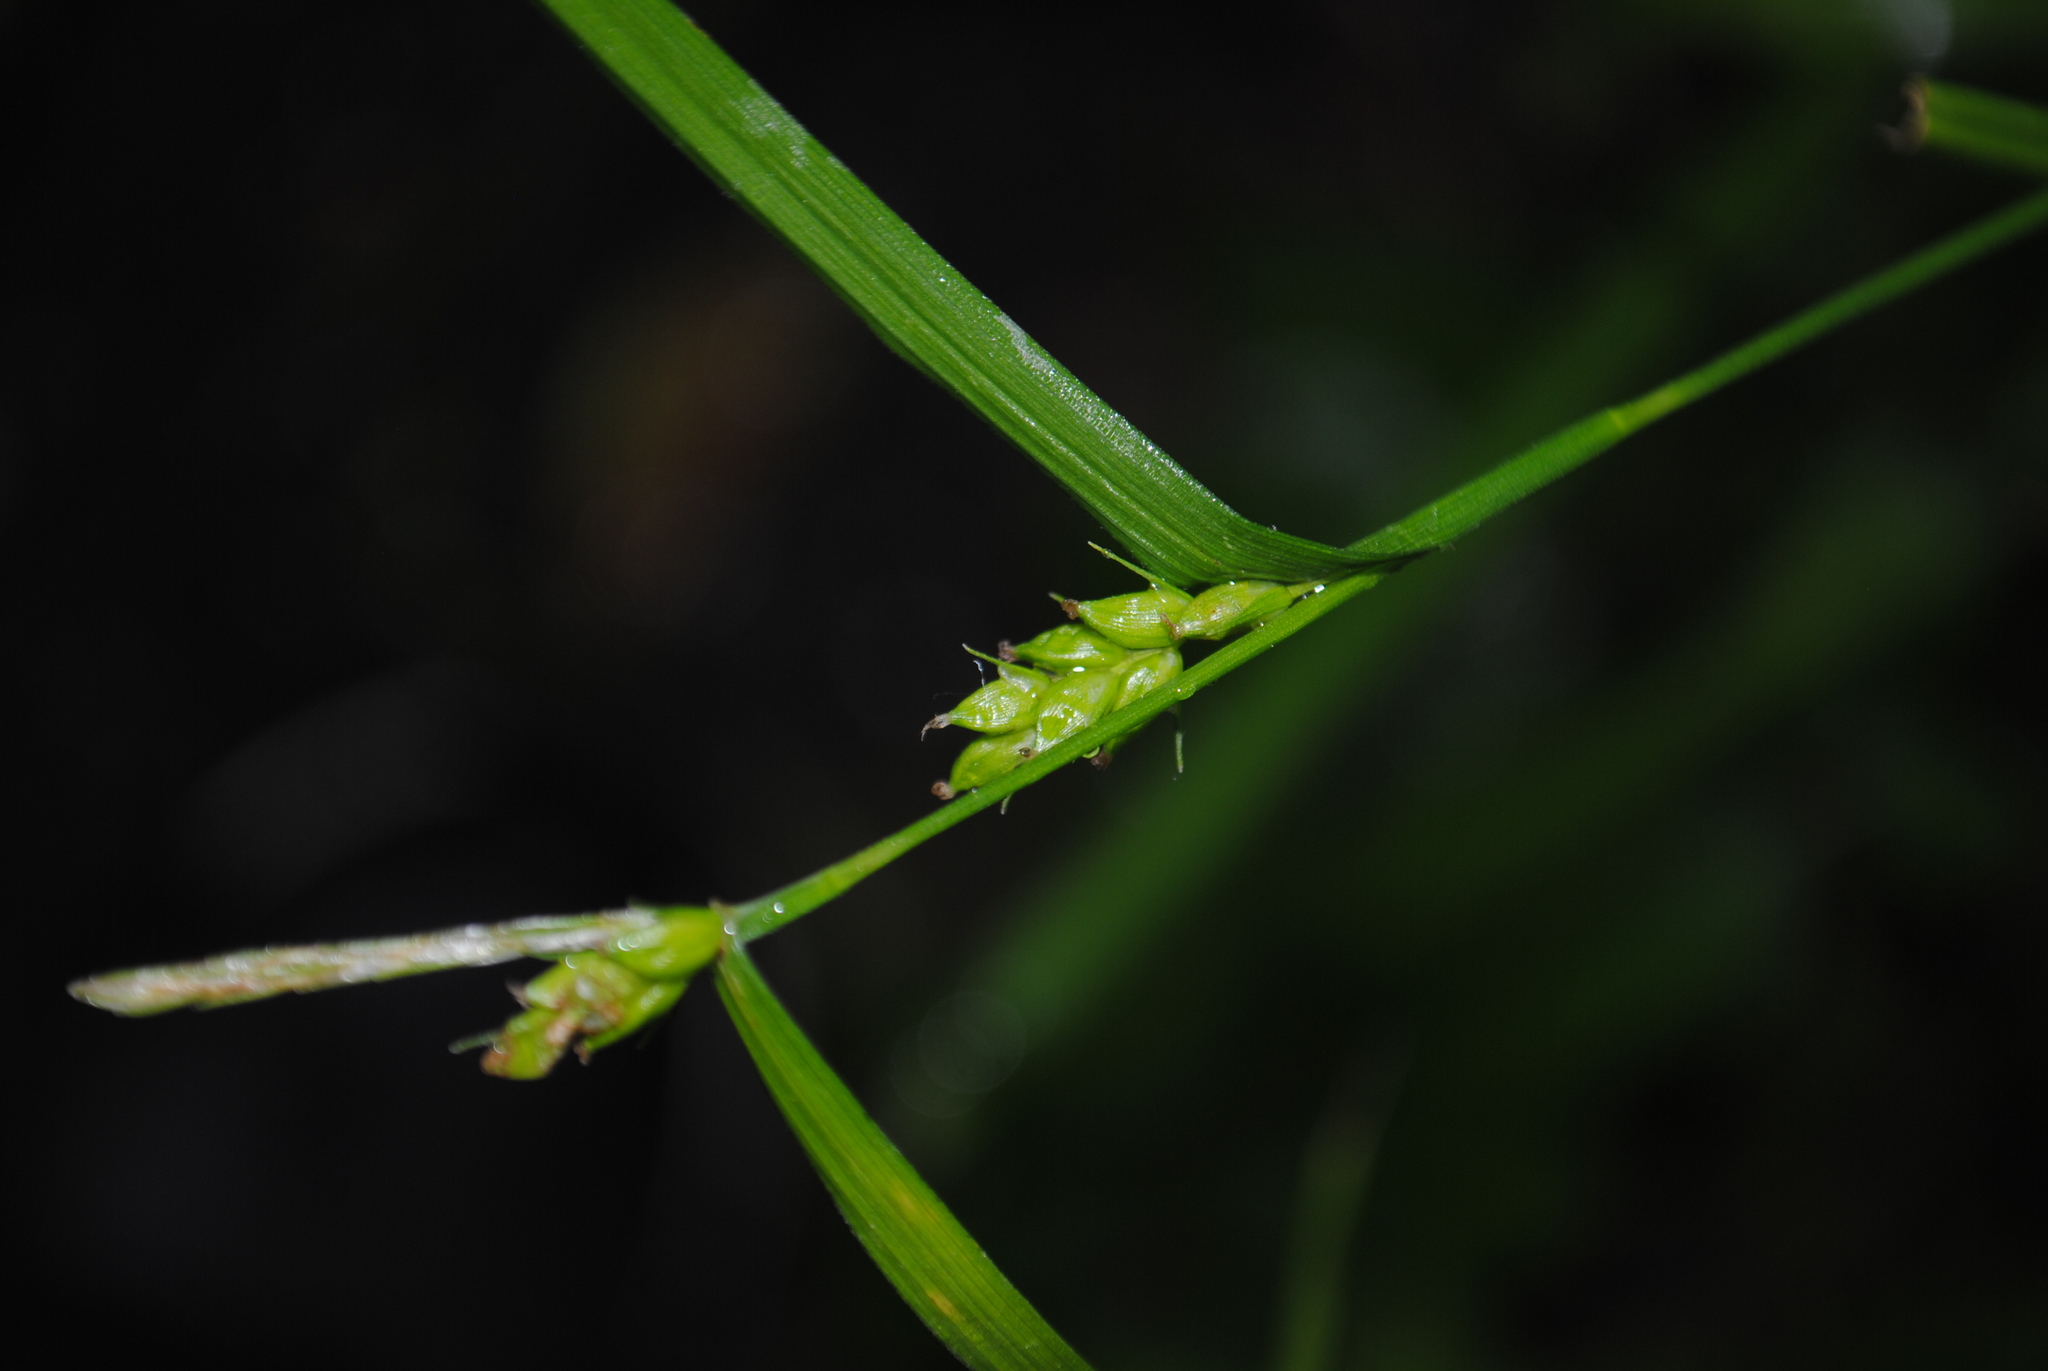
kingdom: Plantae
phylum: Tracheophyta
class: Liliopsida
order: Poales
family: Cyperaceae
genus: Carex
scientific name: Carex amphibola
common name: Amphibious sedge
